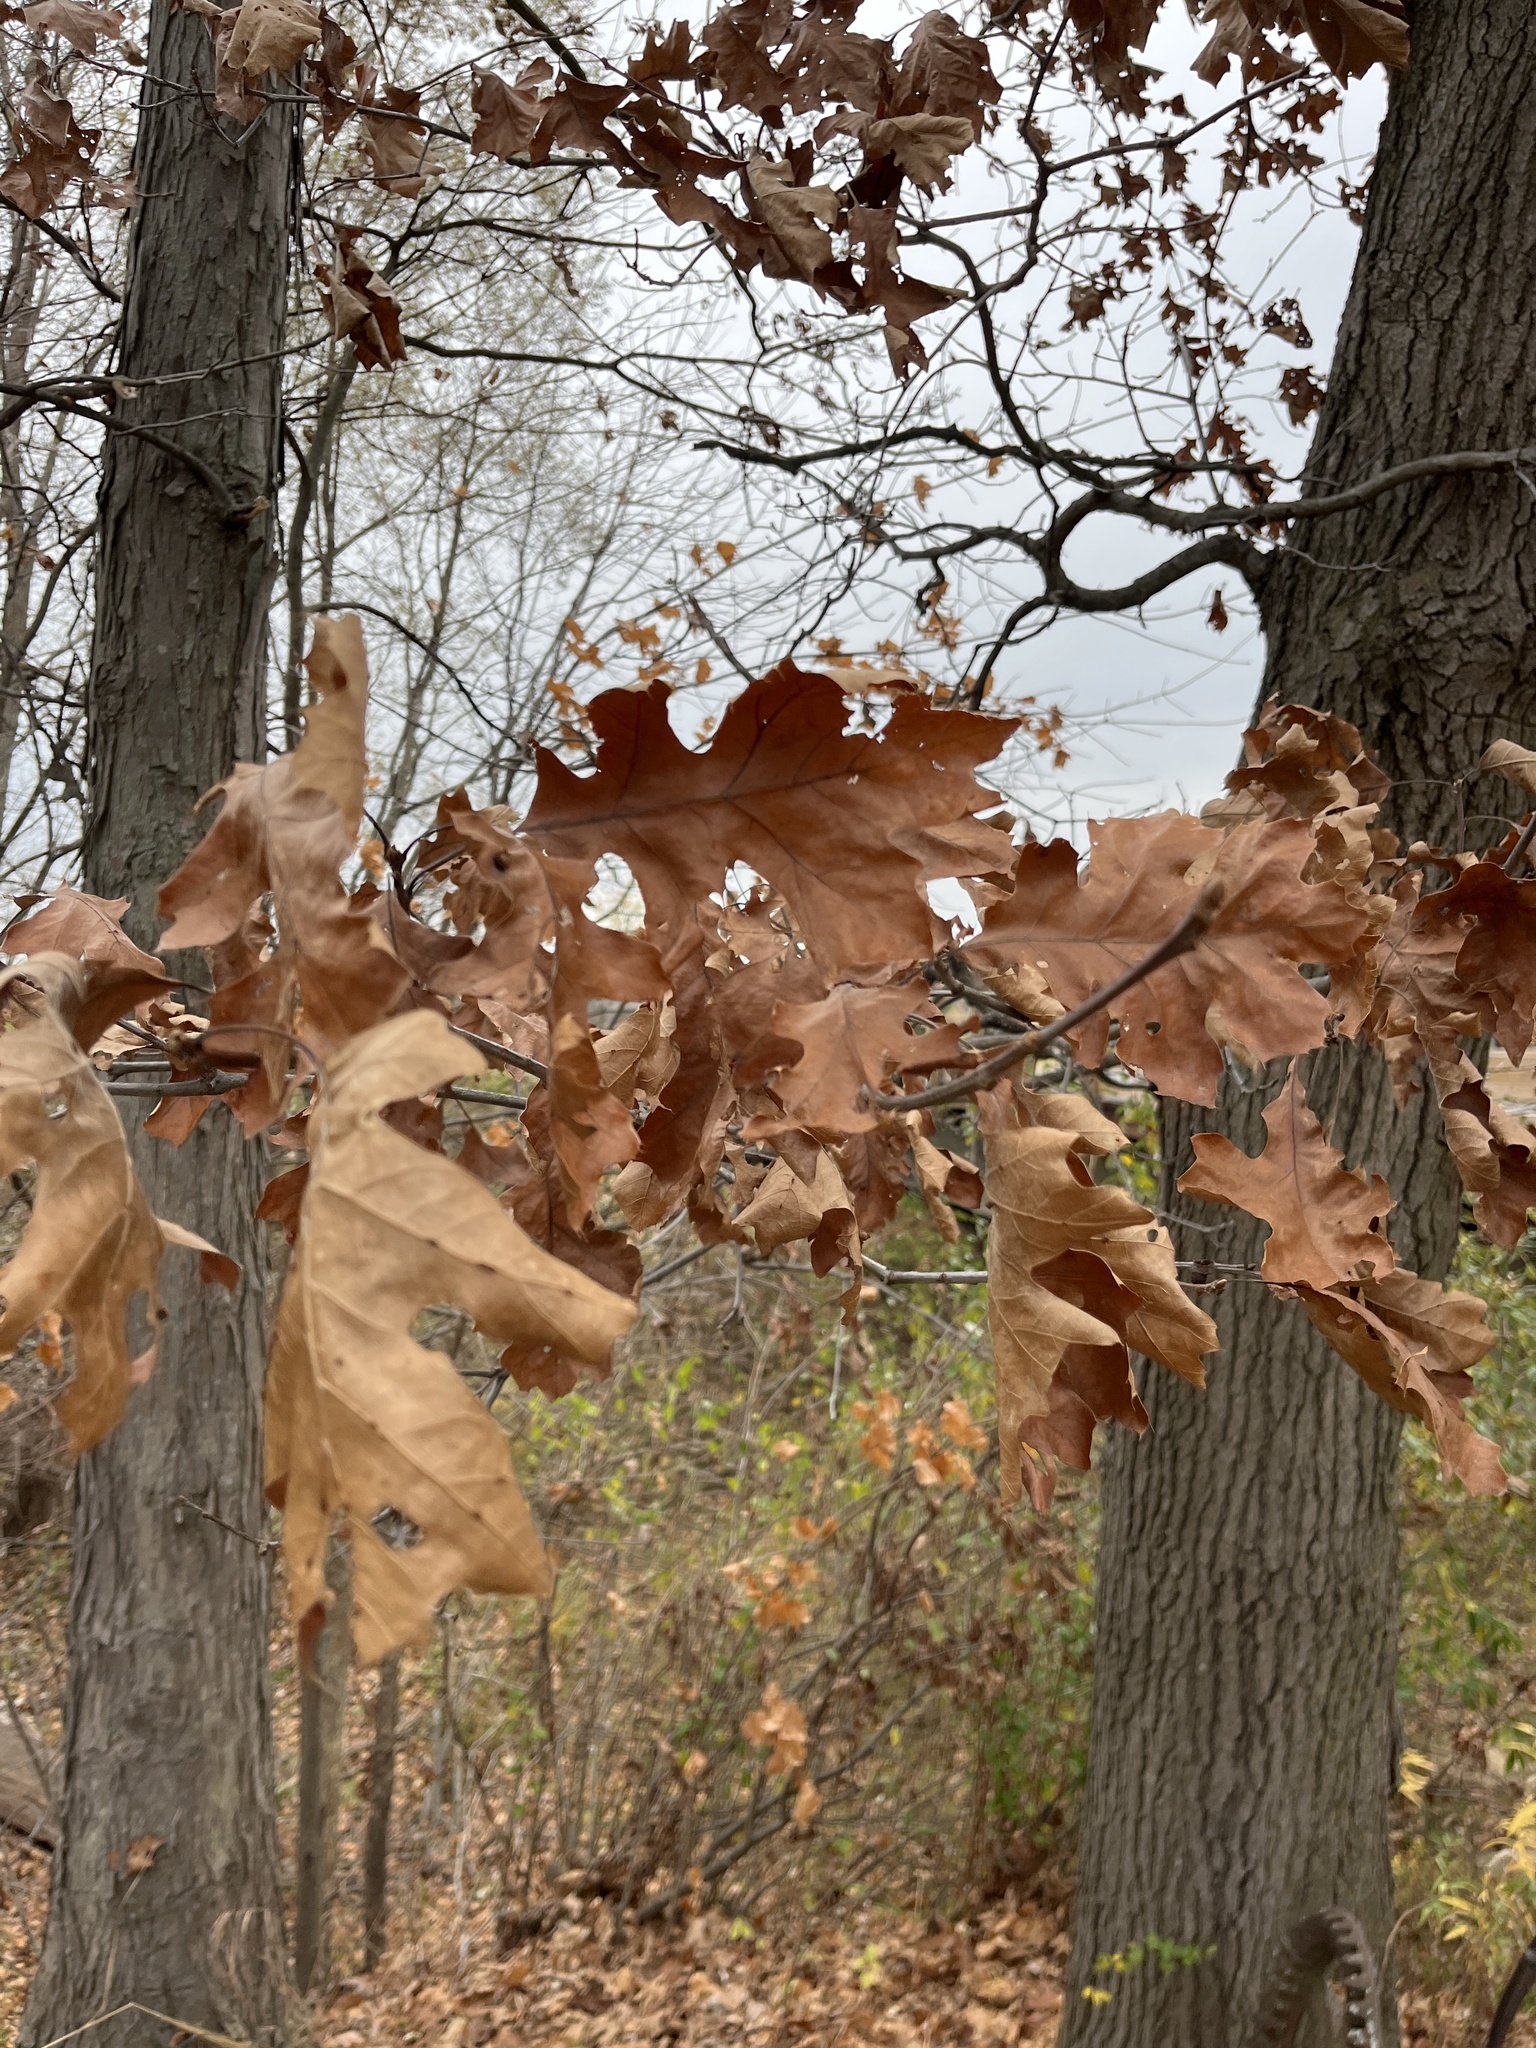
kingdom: Plantae
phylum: Tracheophyta
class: Magnoliopsida
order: Fagales
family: Fagaceae
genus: Quercus
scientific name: Quercus rubra
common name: Red oak
